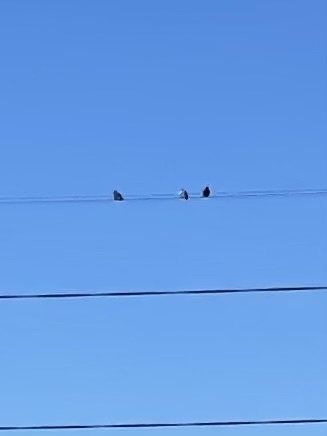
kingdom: Animalia
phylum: Chordata
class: Aves
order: Columbiformes
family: Columbidae
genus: Columba
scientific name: Columba livia
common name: Rock pigeon
